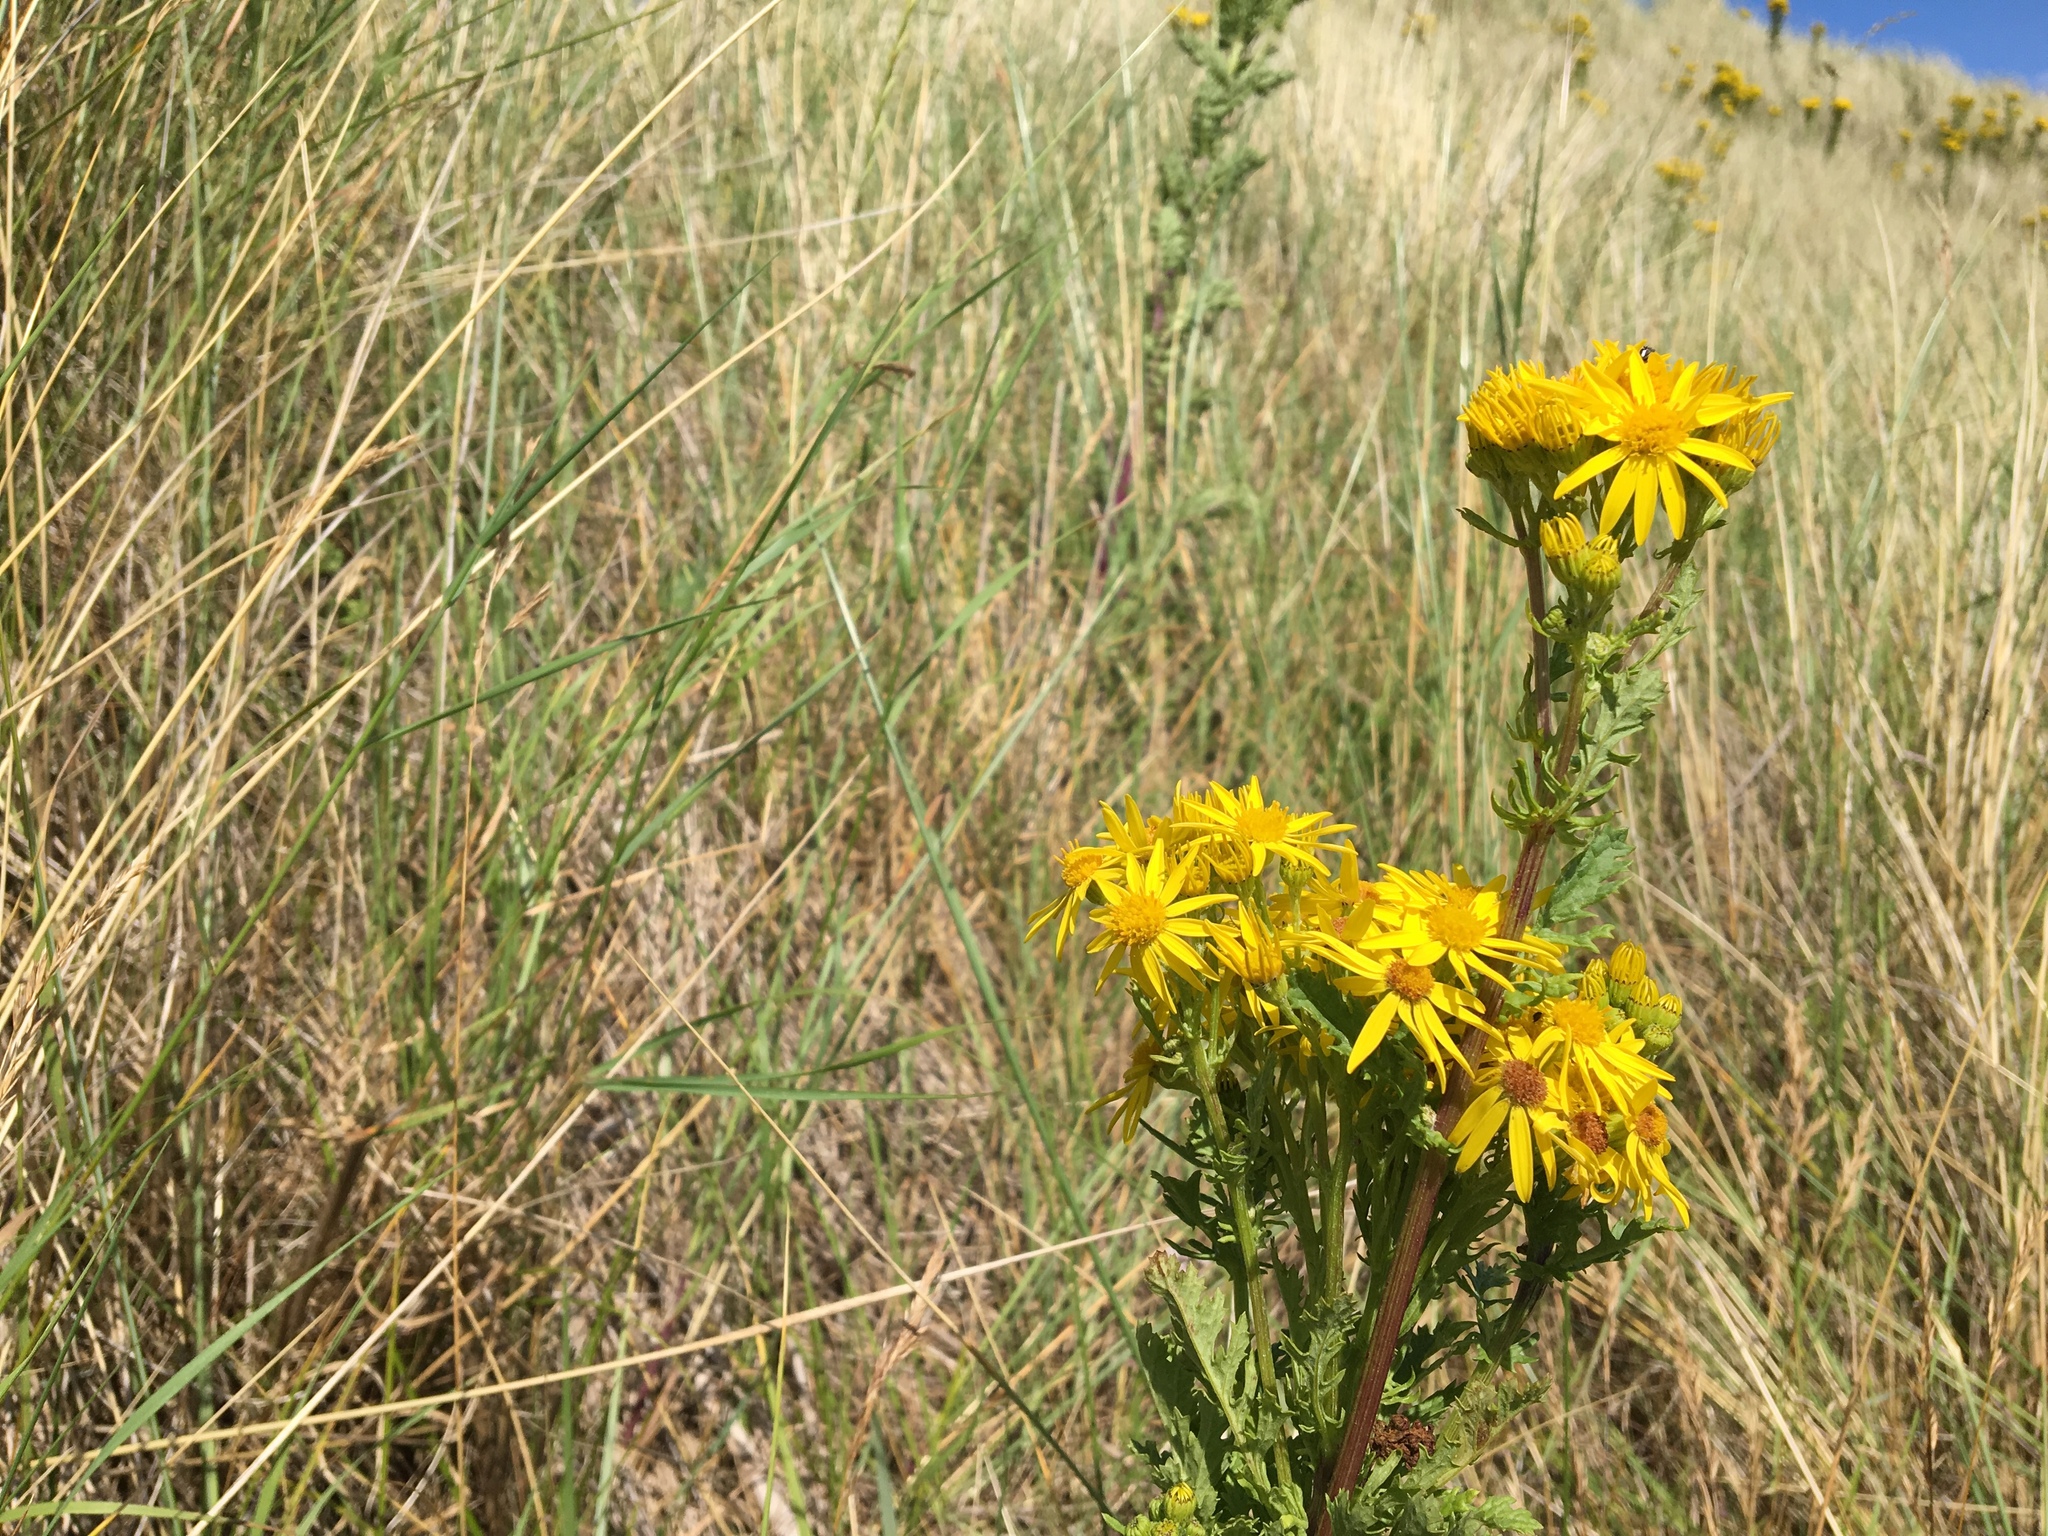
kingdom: Plantae
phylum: Tracheophyta
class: Magnoliopsida
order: Asterales
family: Asteraceae
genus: Jacobaea
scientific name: Jacobaea vulgaris
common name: Stinking willie
